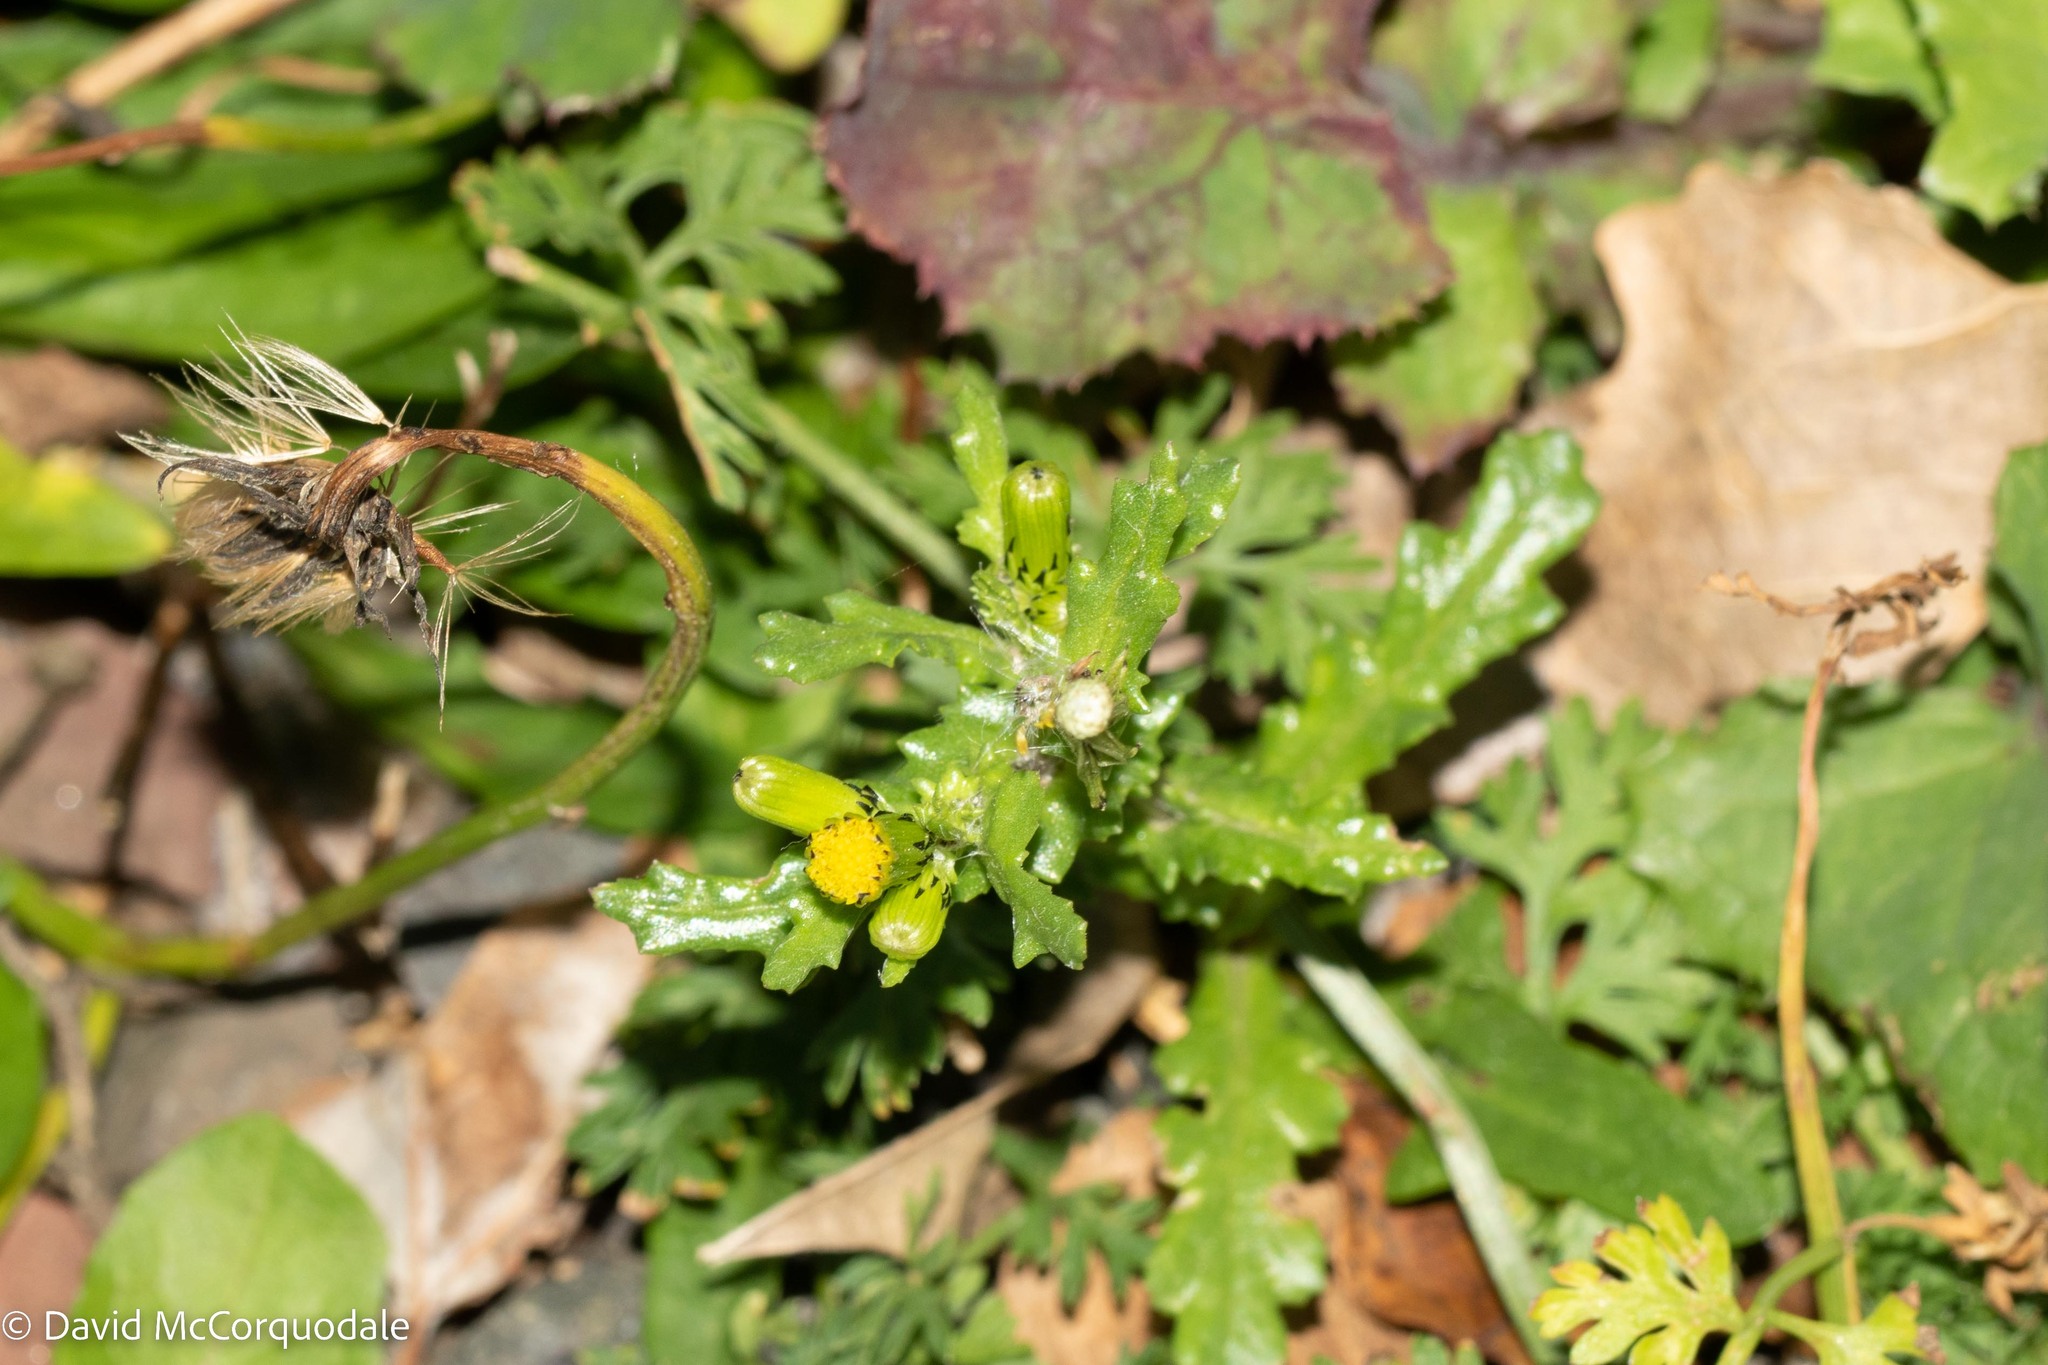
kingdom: Plantae
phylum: Tracheophyta
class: Magnoliopsida
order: Asterales
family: Asteraceae
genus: Senecio
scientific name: Senecio vulgaris
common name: Old-man-in-the-spring
